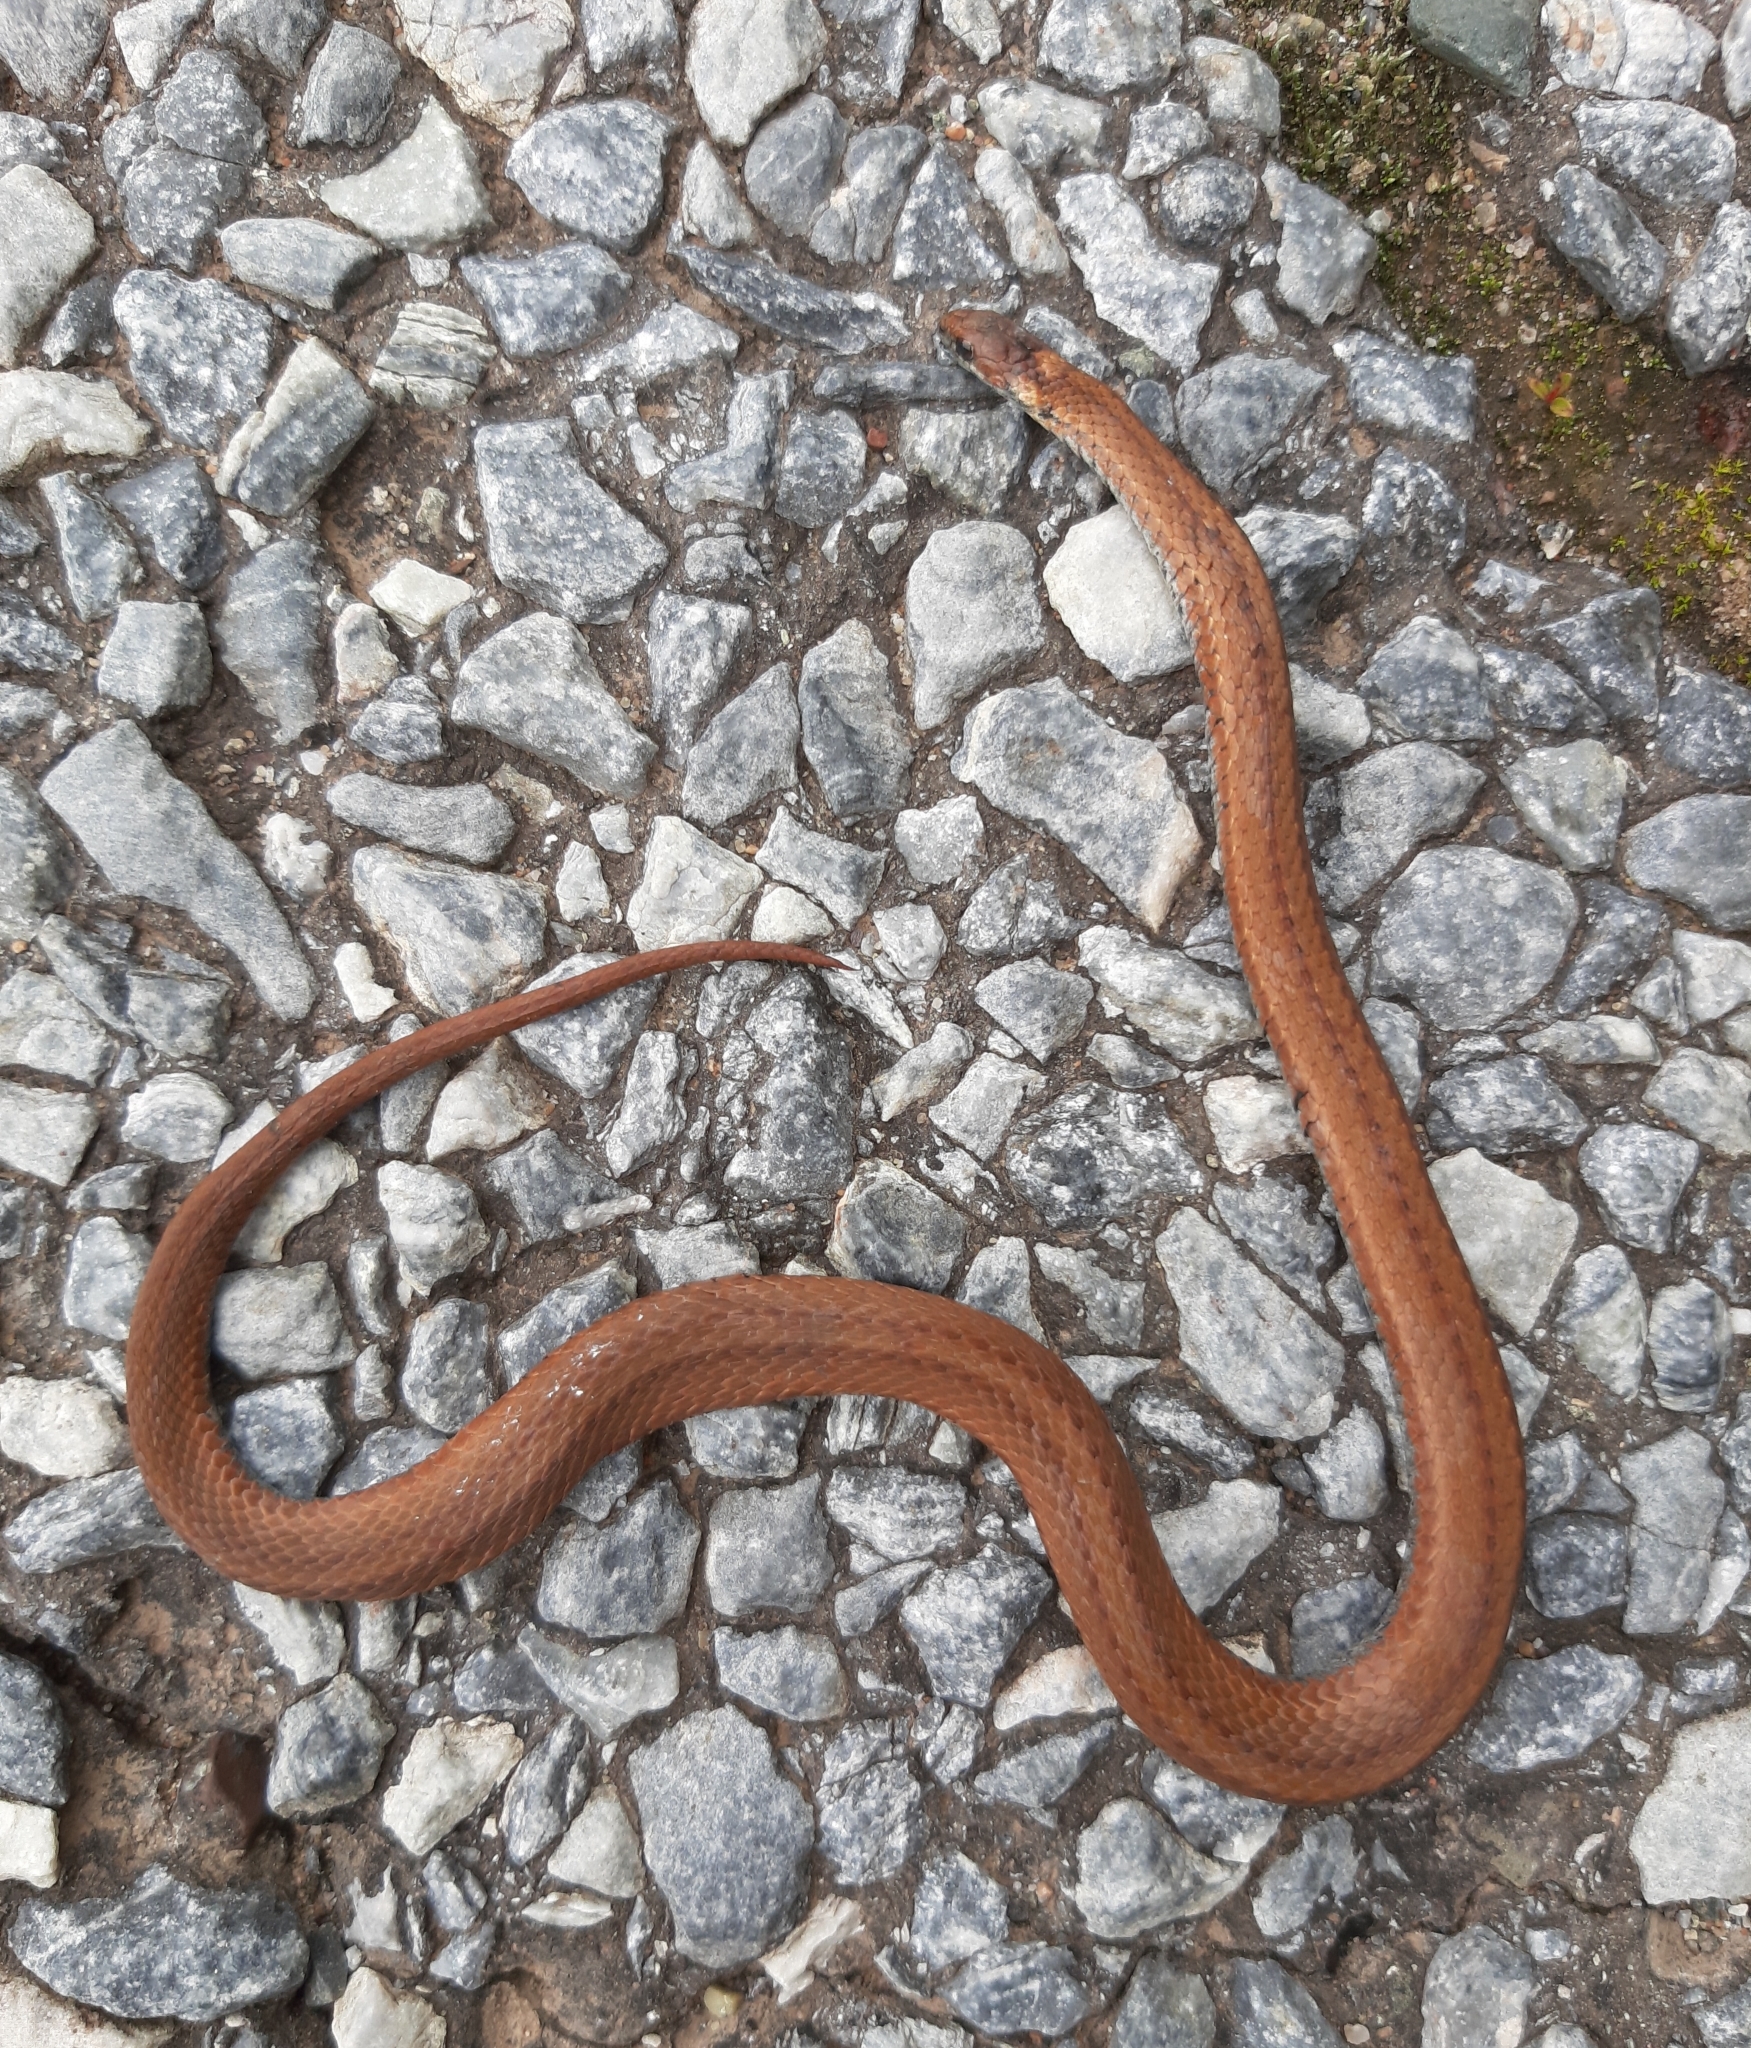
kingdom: Animalia
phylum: Chordata
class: Squamata
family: Colubridae
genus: Storeria
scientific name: Storeria occipitomaculata
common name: Redbelly snake
